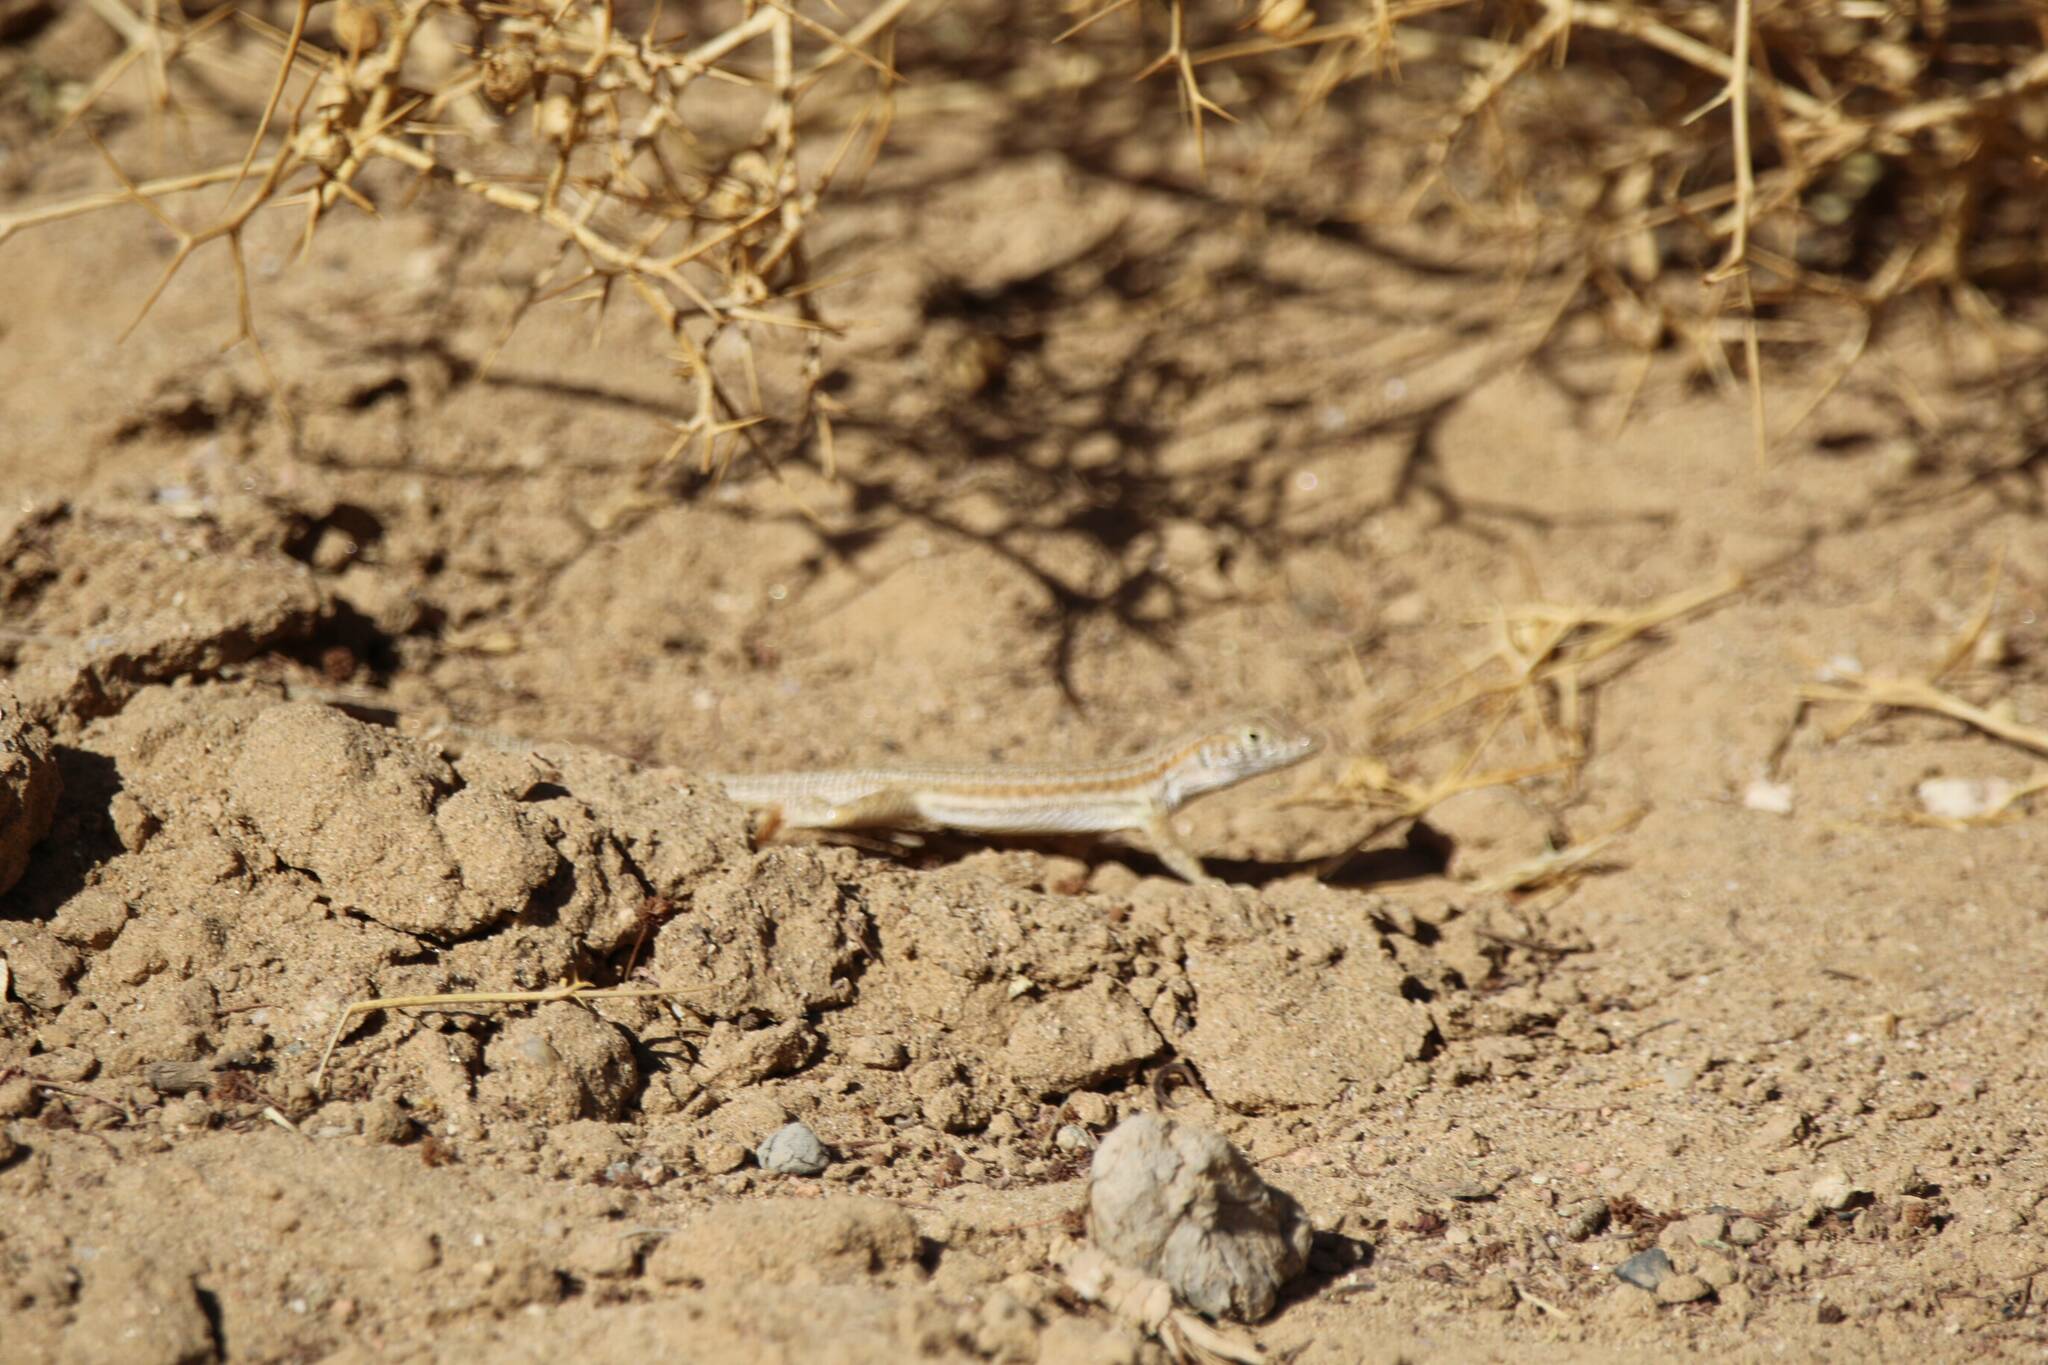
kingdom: Animalia
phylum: Chordata
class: Squamata
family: Lacertidae
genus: Acanthodactylus
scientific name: Acanthodactylus boskianus
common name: Bosc’s fringe-toed lizard
